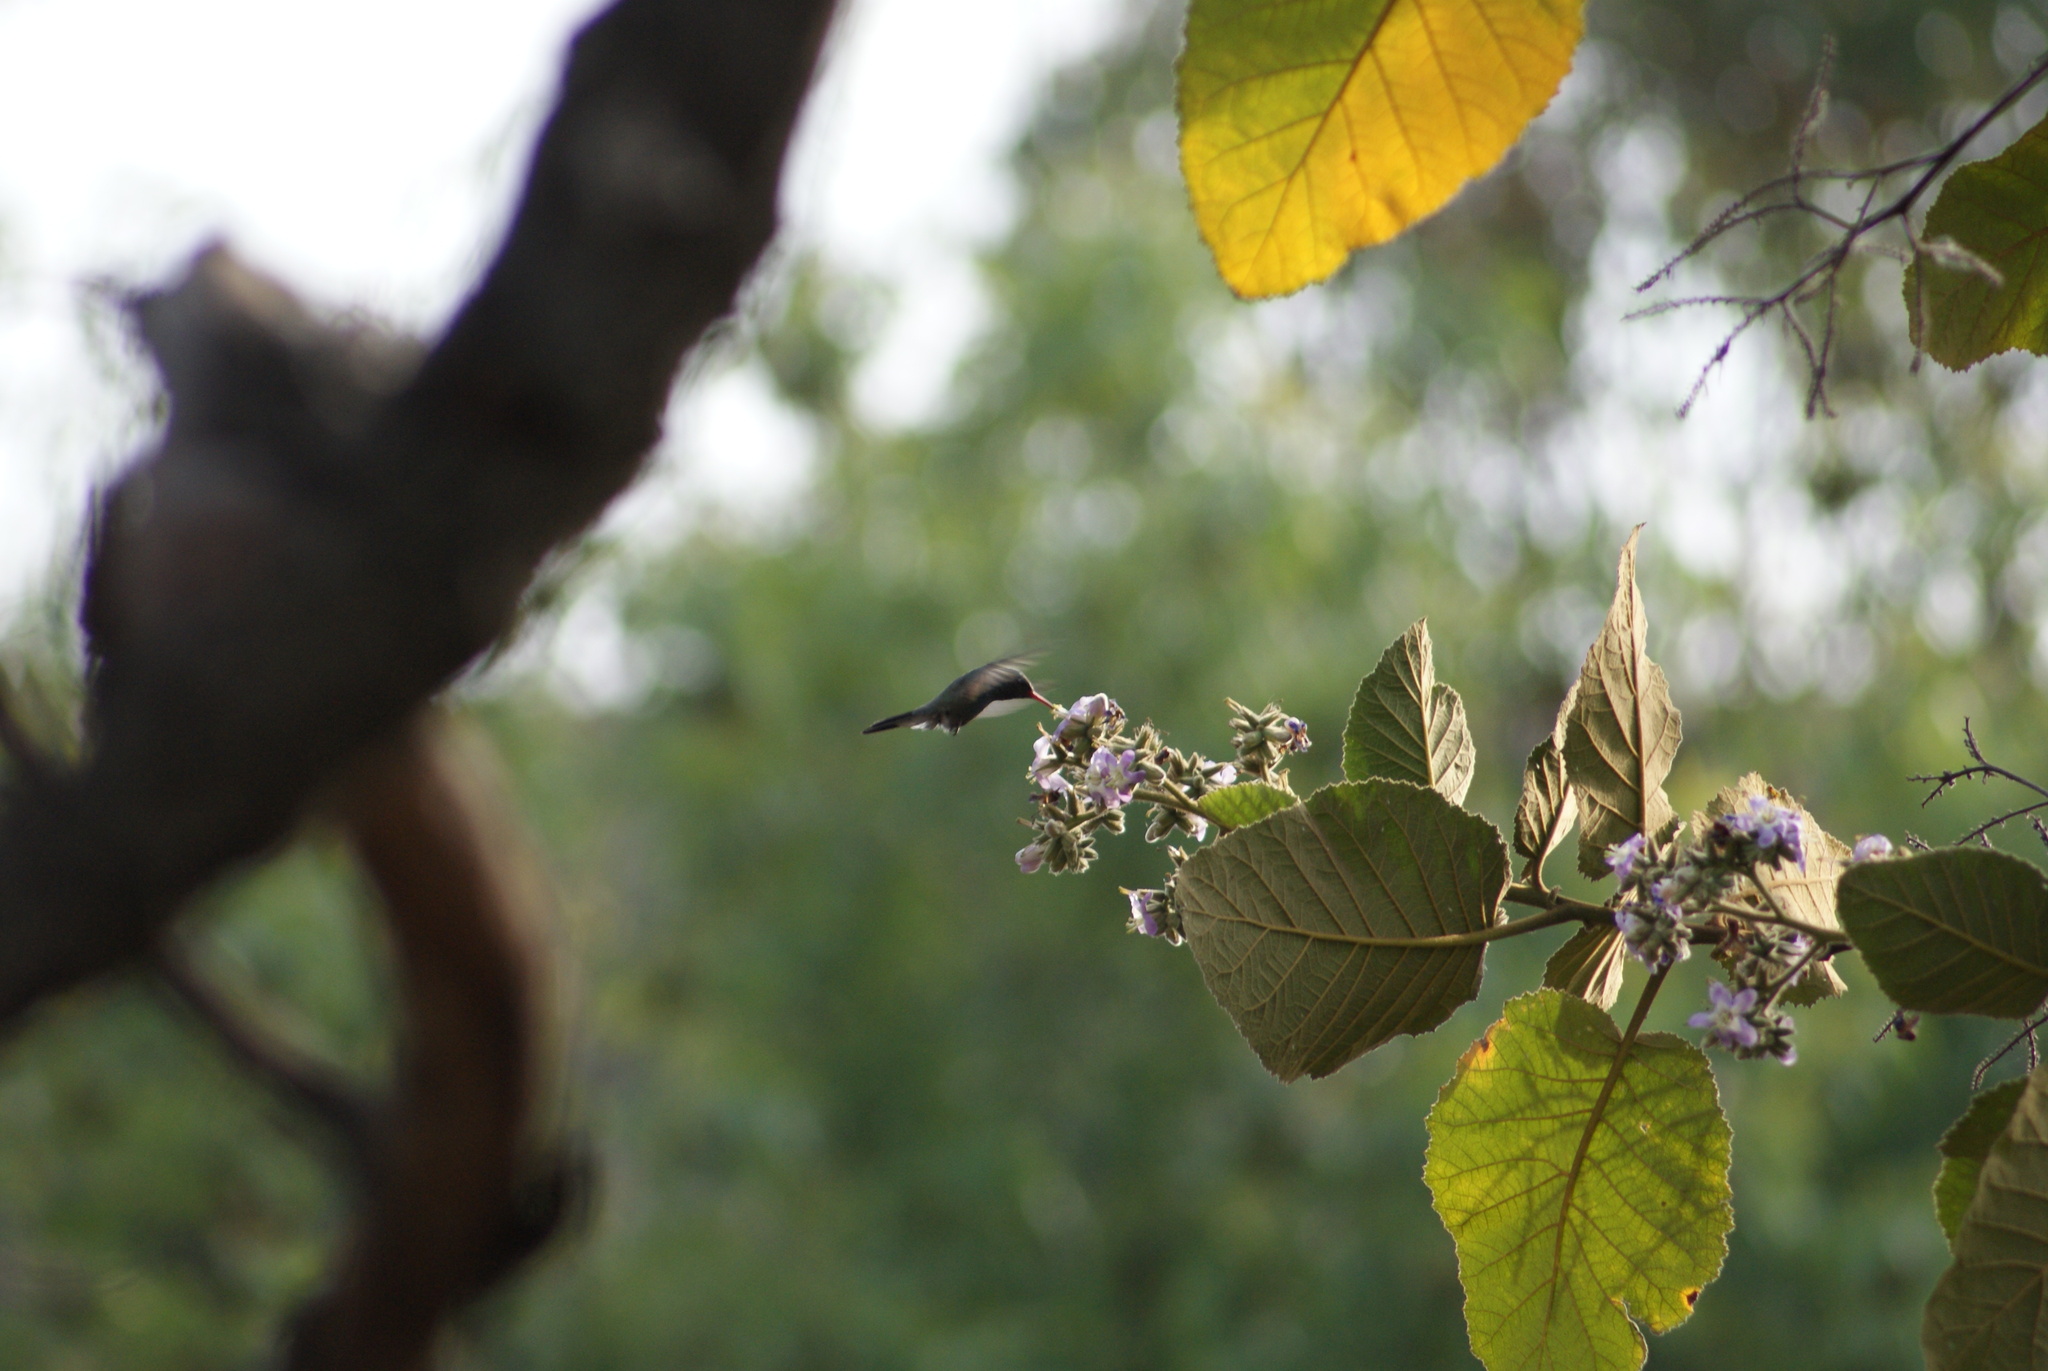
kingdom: Animalia
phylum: Chordata
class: Aves
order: Apodiformes
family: Trochilidae
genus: Cynanthus
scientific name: Cynanthus latirostris
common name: Broad-billed hummingbird
